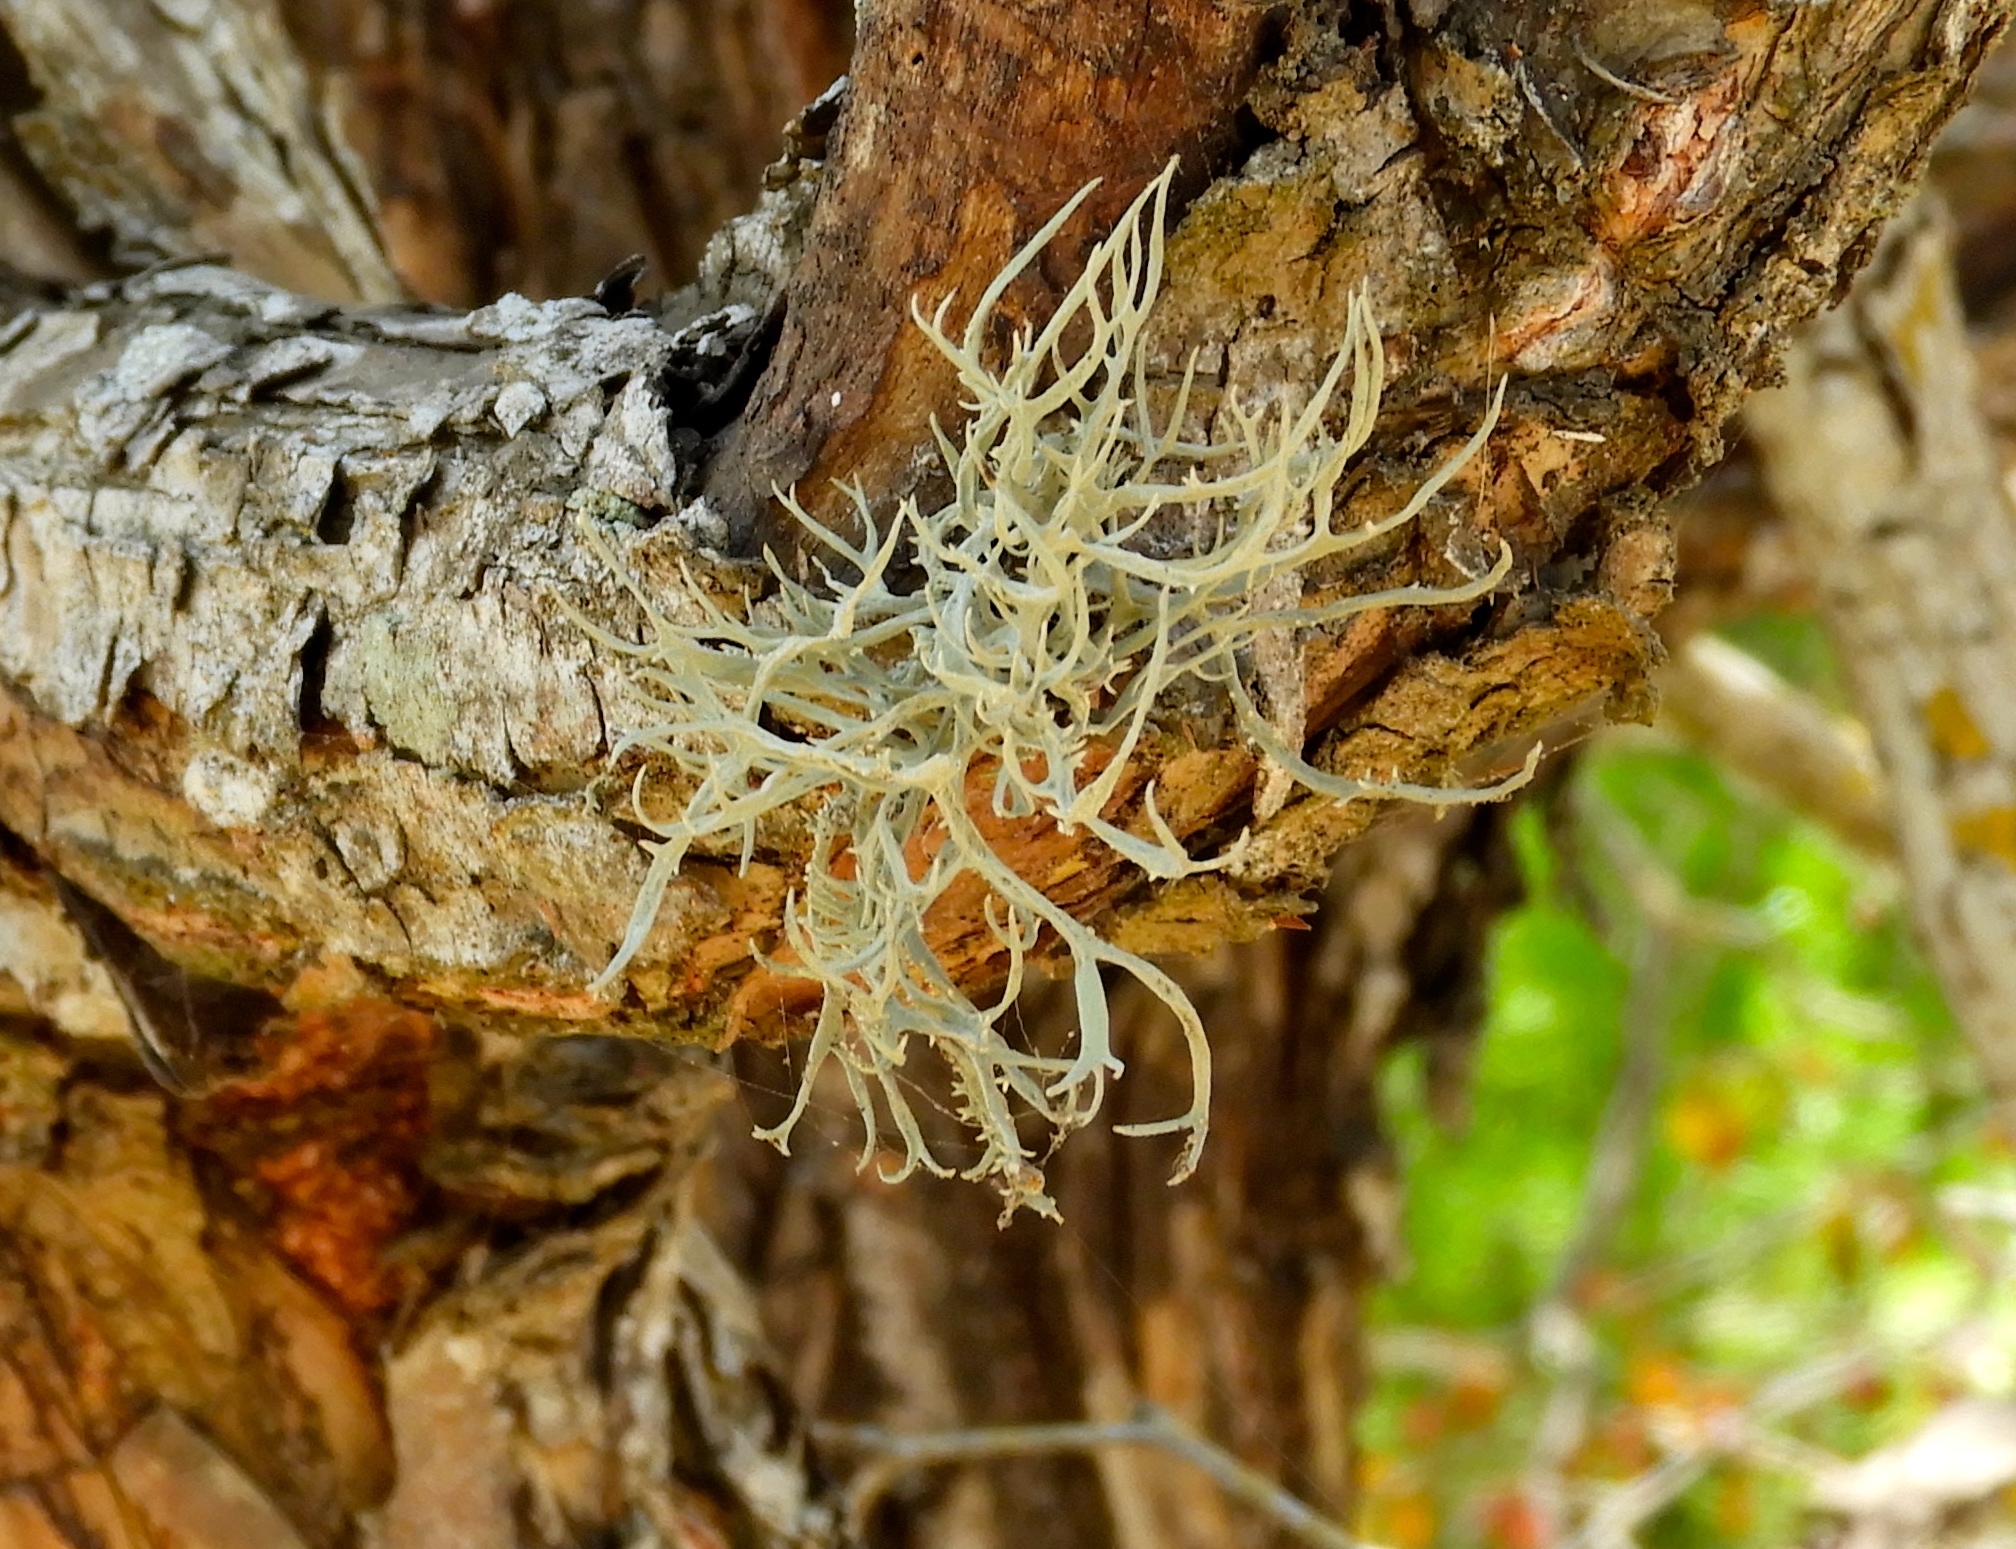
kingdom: Fungi
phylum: Ascomycota
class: Arthoniomycetes
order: Arthoniales
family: Roccellaceae
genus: Roccella
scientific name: Roccella gracilis
